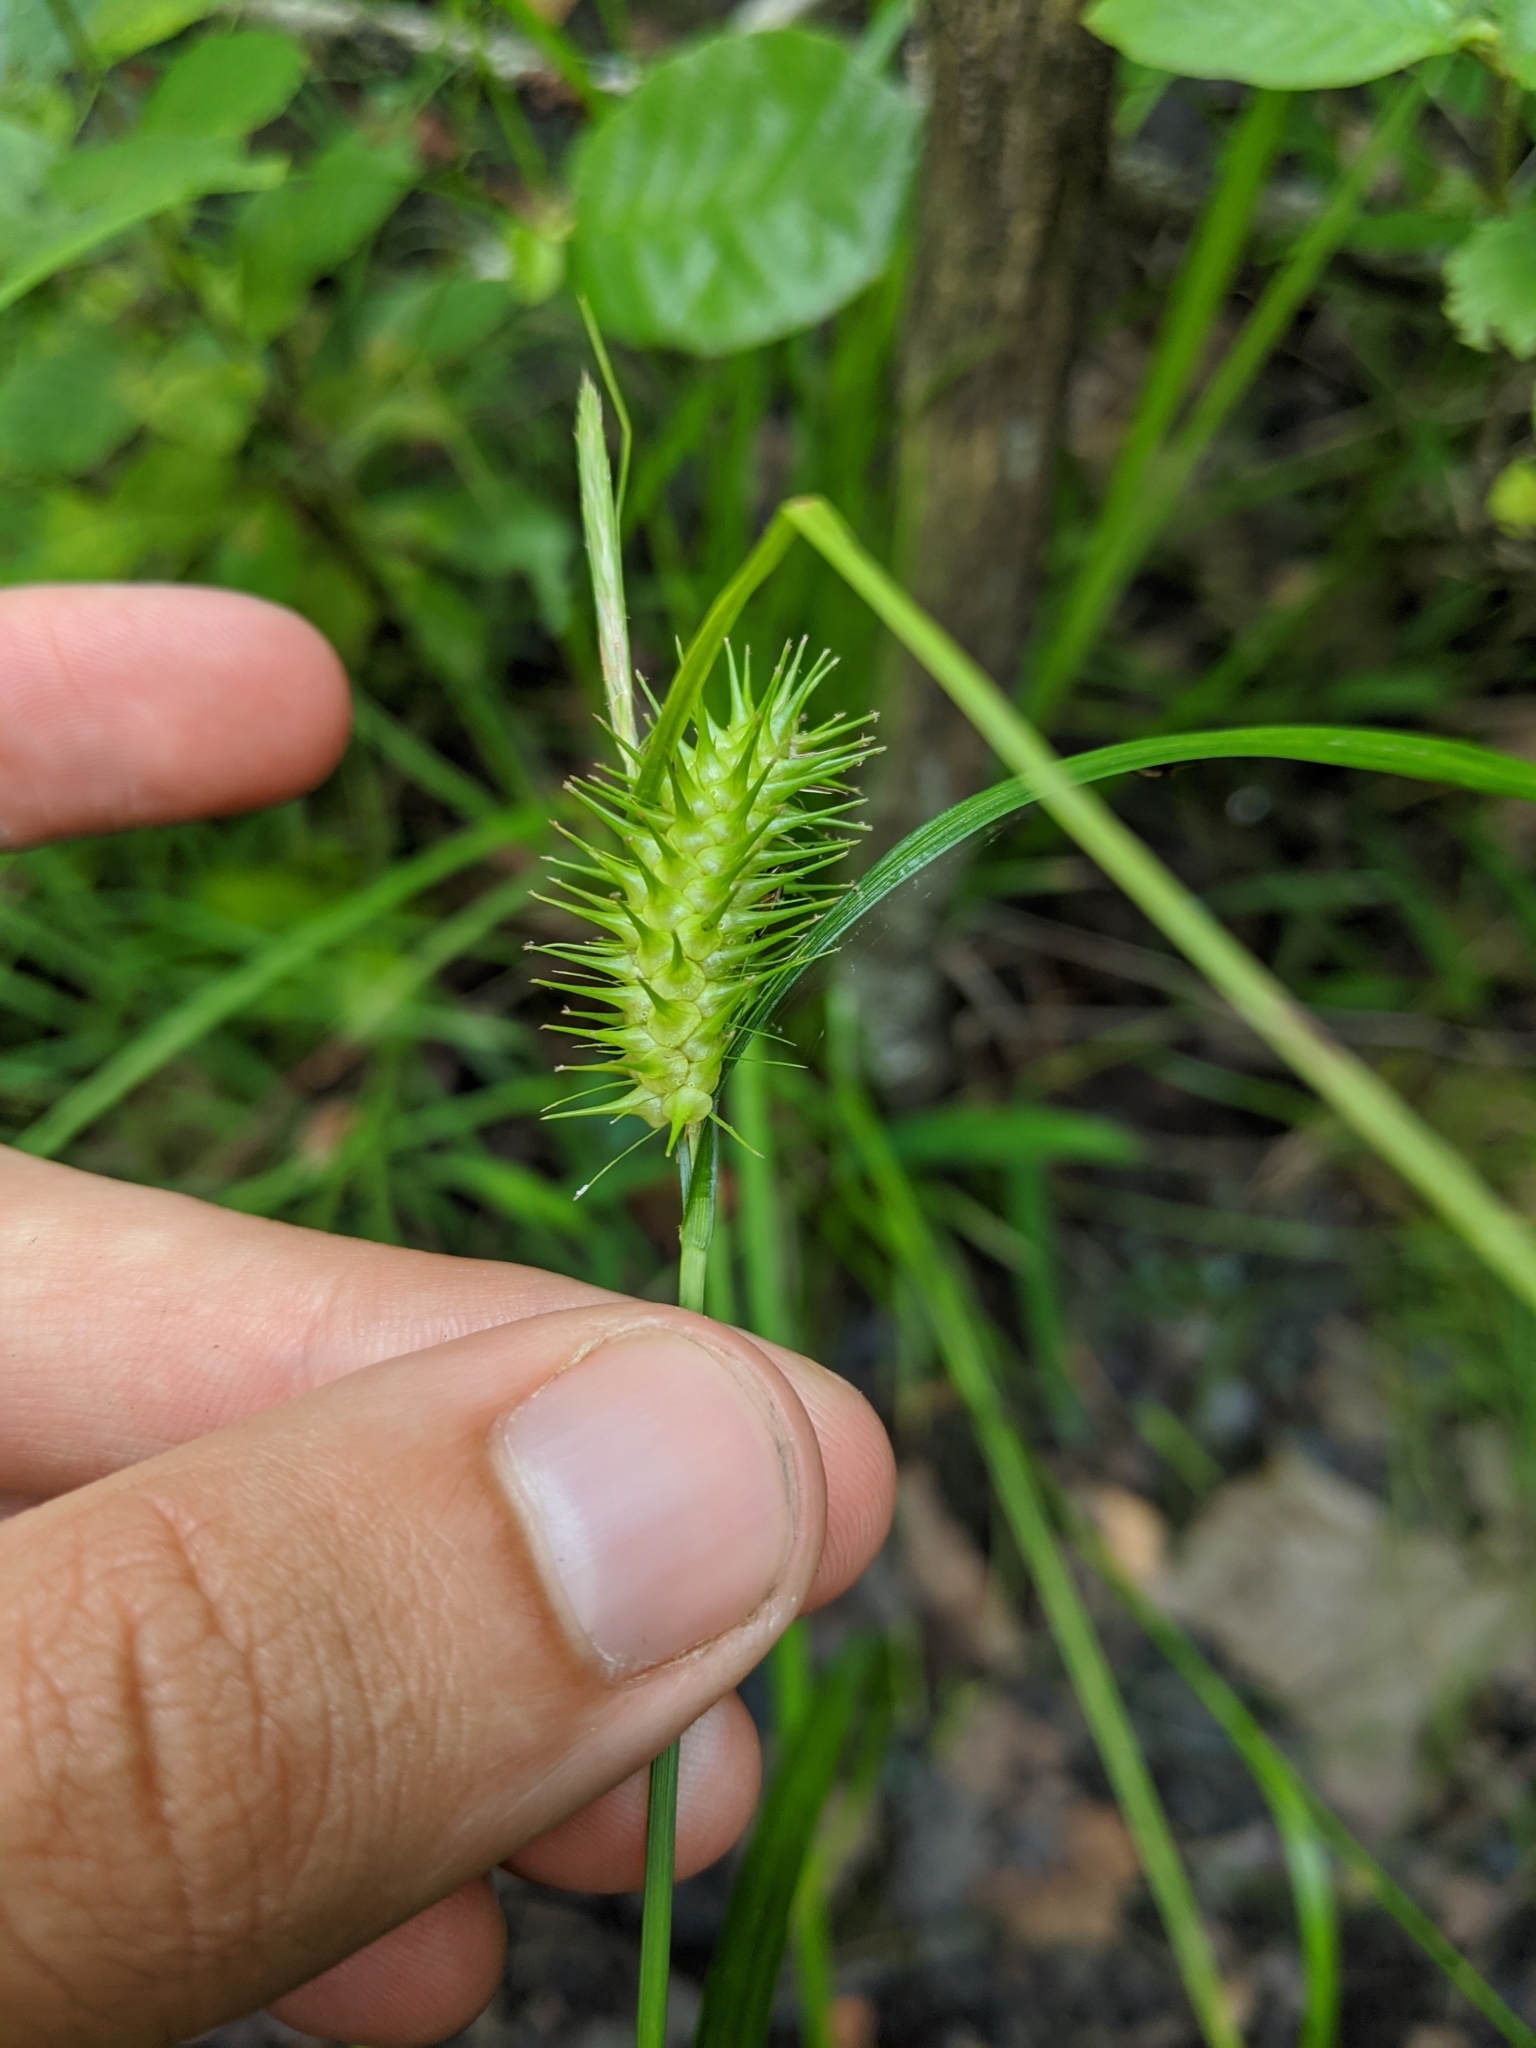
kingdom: Plantae
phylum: Tracheophyta
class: Liliopsida
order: Poales
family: Cyperaceae
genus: Carex
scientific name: Carex hystericina
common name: Bottlebrush sedge
